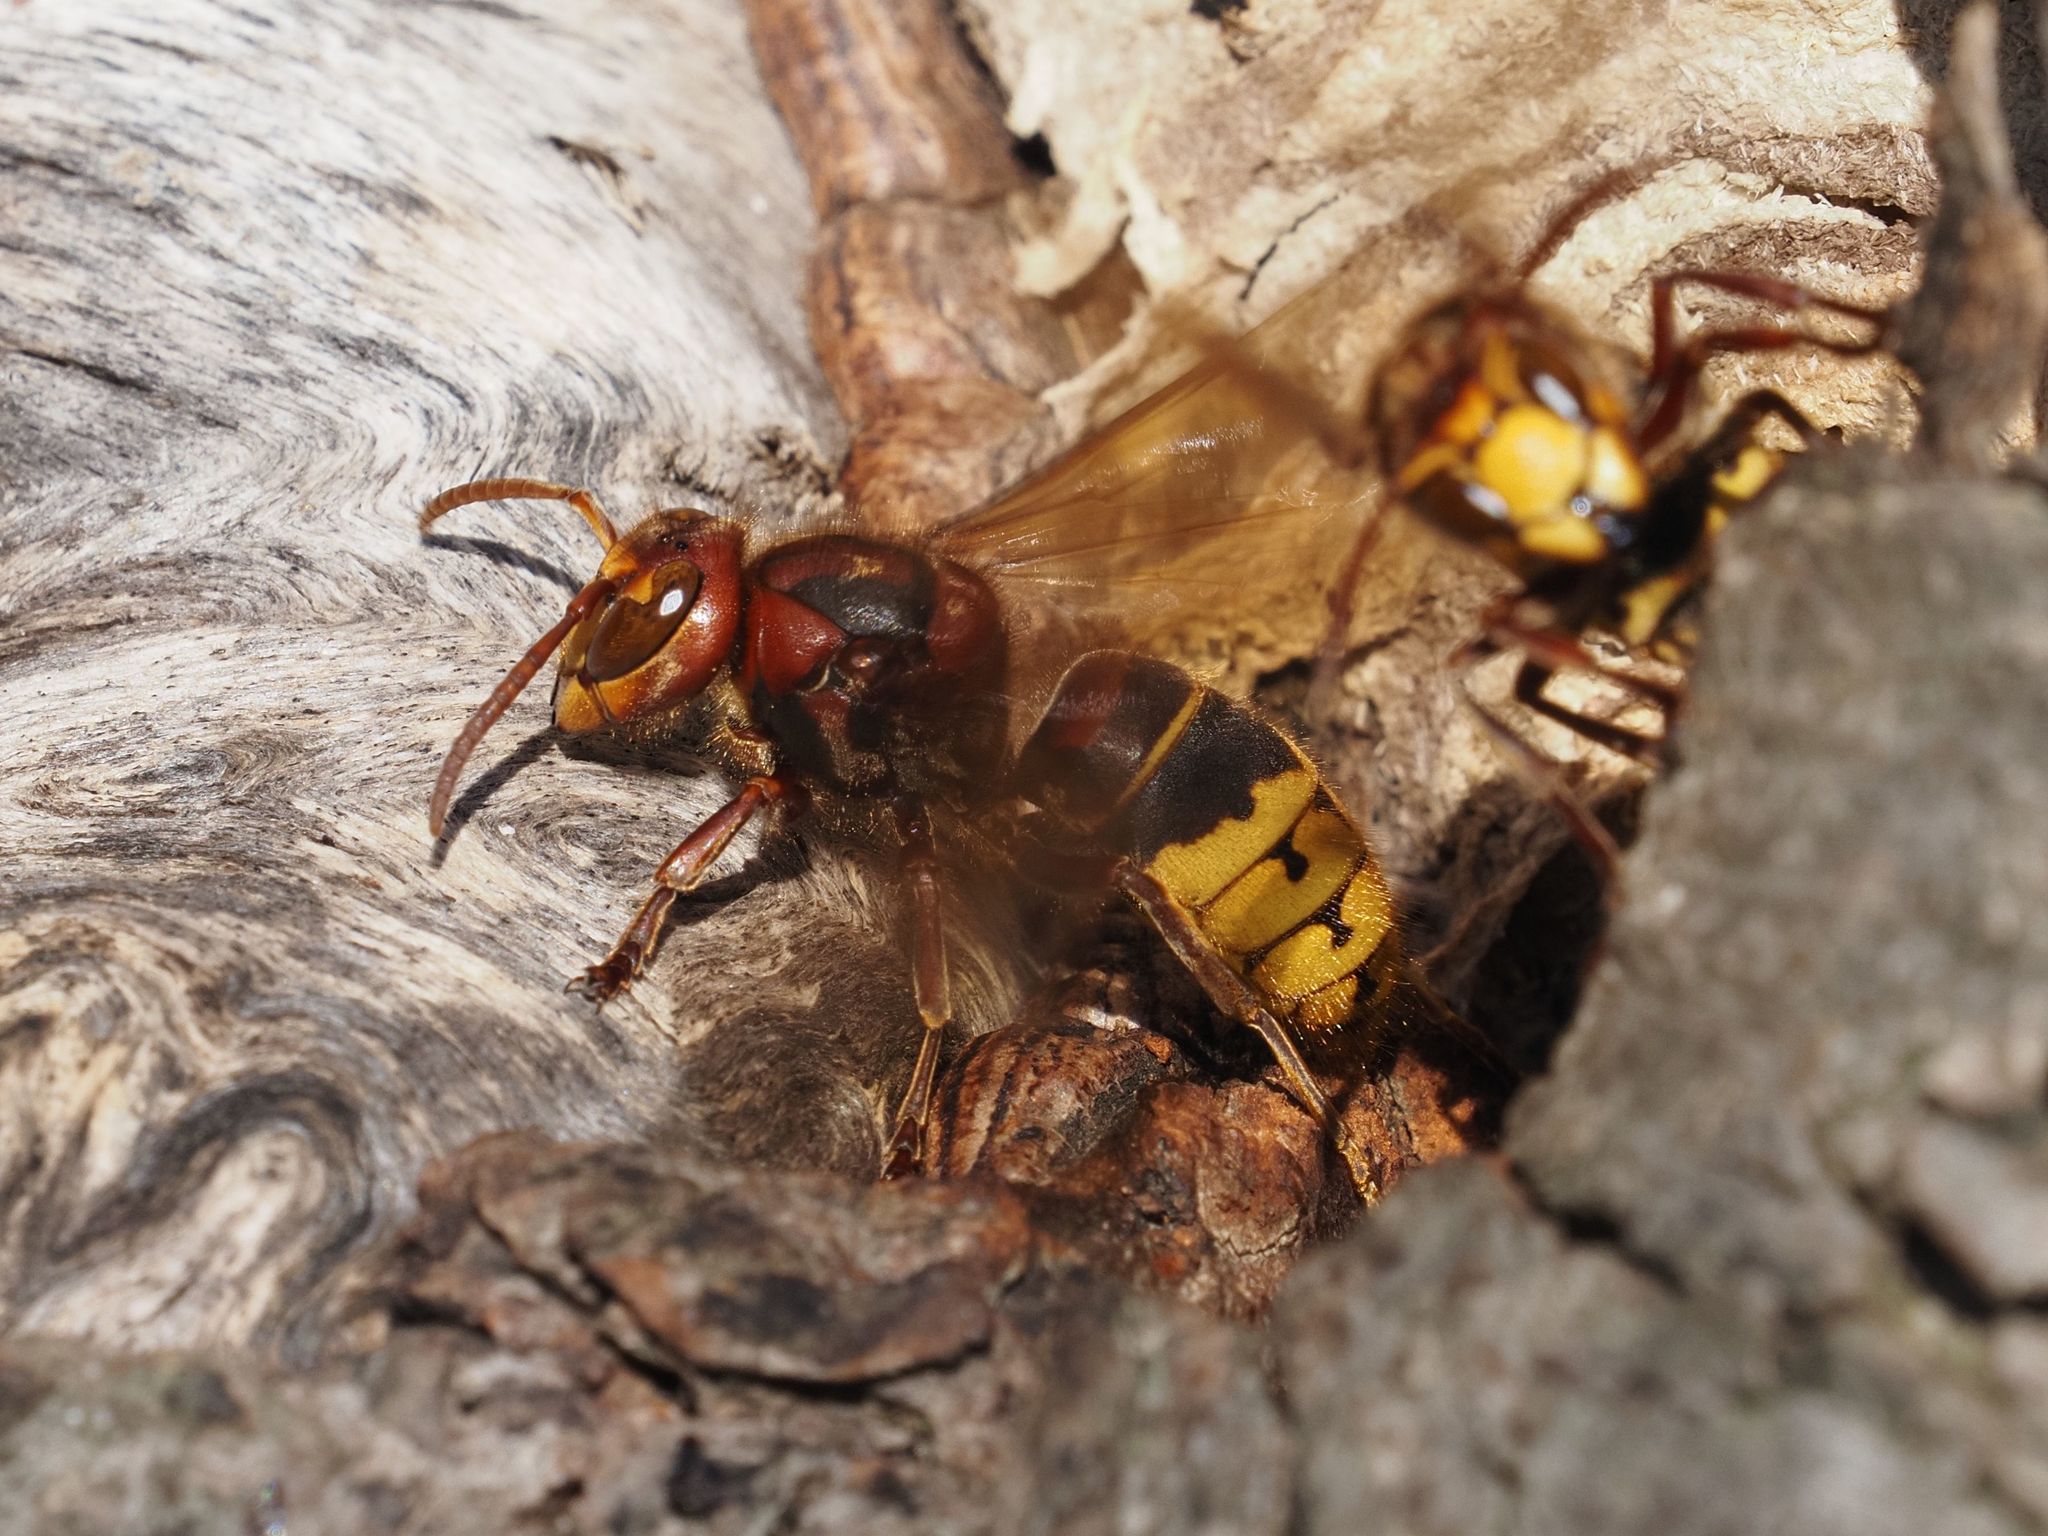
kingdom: Animalia
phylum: Arthropoda
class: Insecta
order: Hymenoptera
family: Vespidae
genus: Vespa
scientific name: Vespa crabro
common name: Hornet
